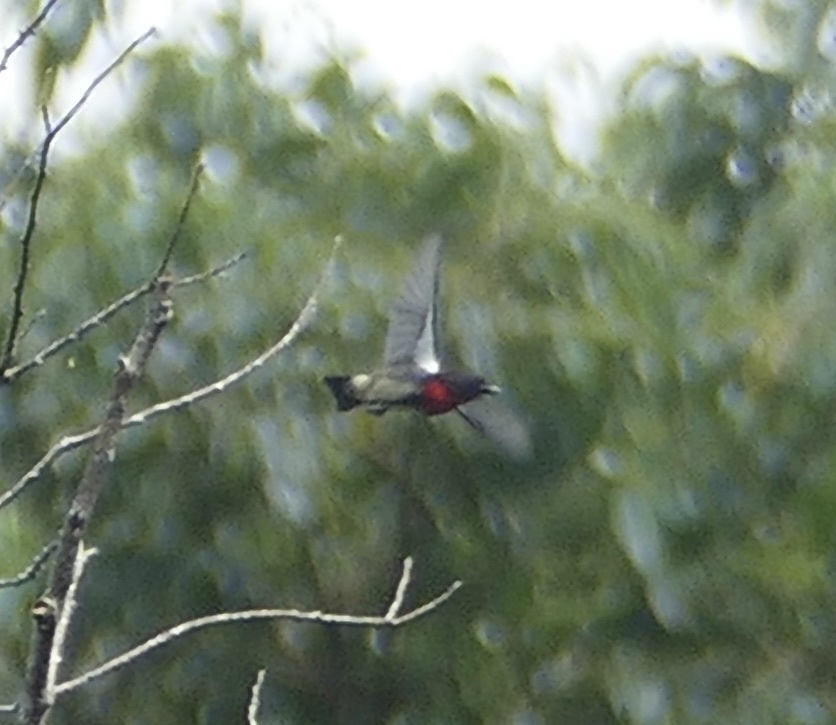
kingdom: Animalia
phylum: Chordata
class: Aves
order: Passeriformes
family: Dicaeidae
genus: Dicaeum
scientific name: Dicaeum celebicum
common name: Grey-sided flowerpecker
